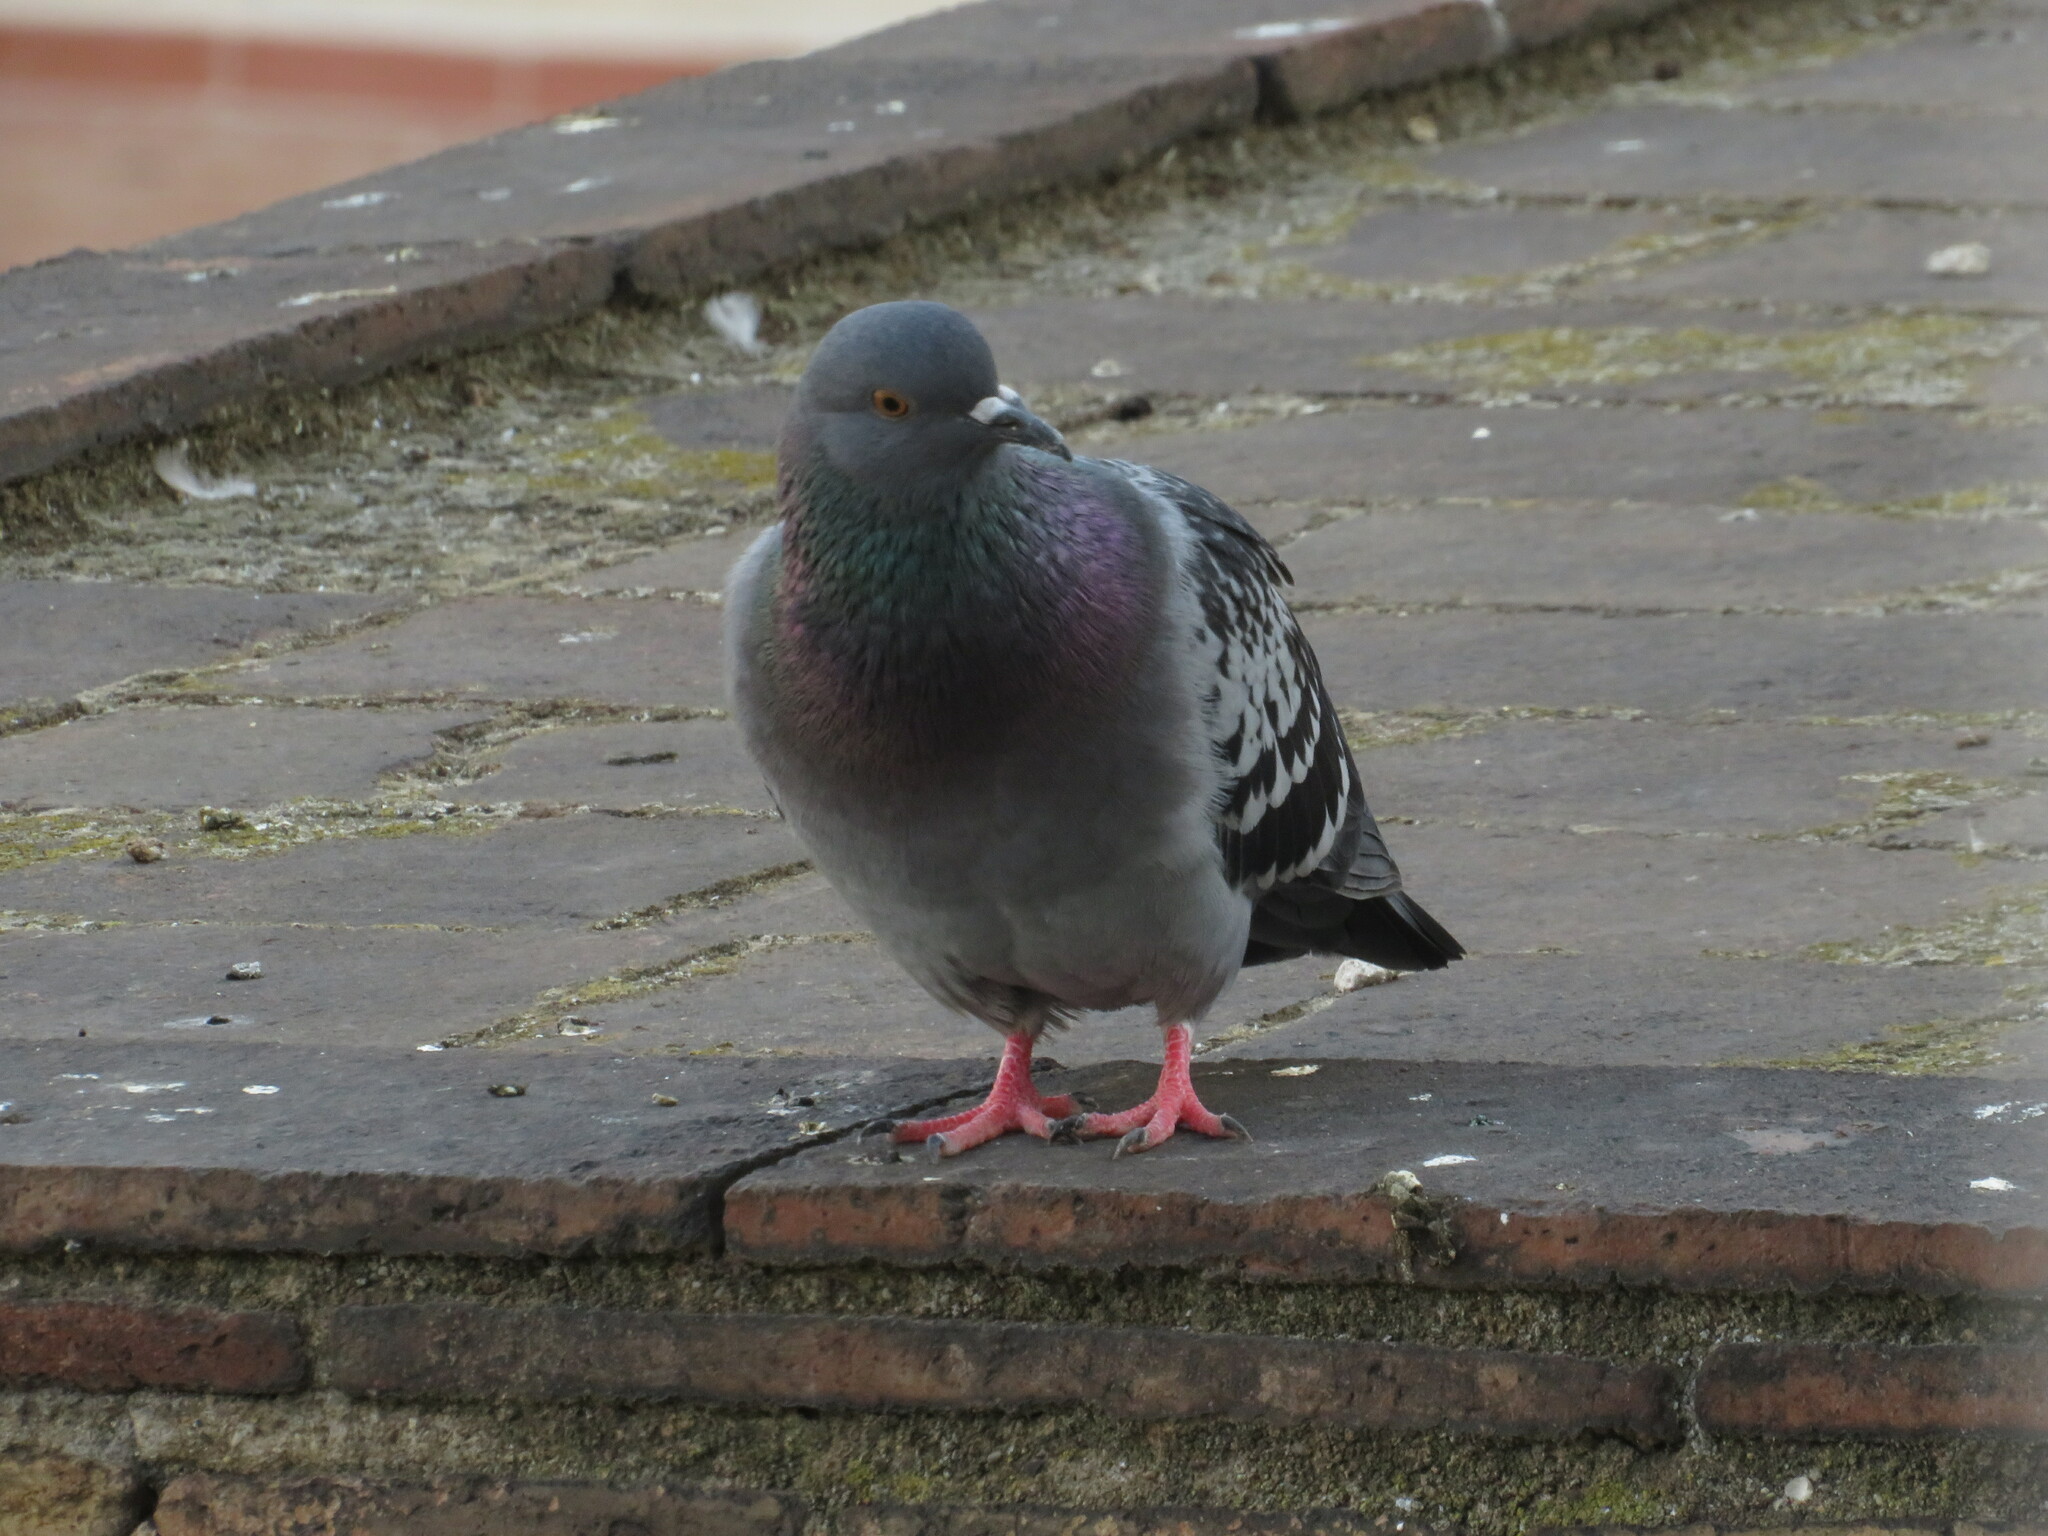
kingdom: Animalia
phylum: Chordata
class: Aves
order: Columbiformes
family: Columbidae
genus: Columba
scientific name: Columba livia
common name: Rock pigeon
